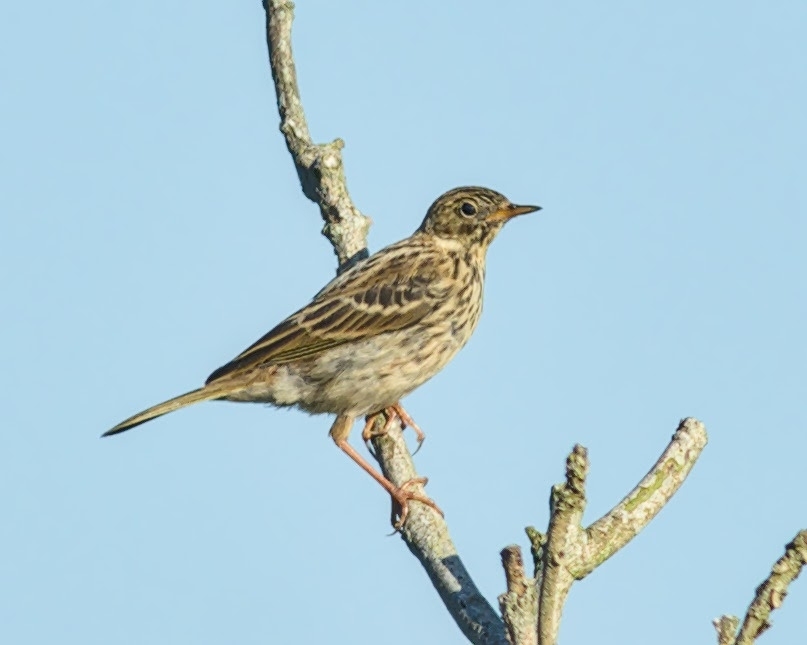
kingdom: Animalia
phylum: Chordata
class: Aves
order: Passeriformes
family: Motacillidae
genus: Anthus
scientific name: Anthus pratensis
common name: Meadow pipit
